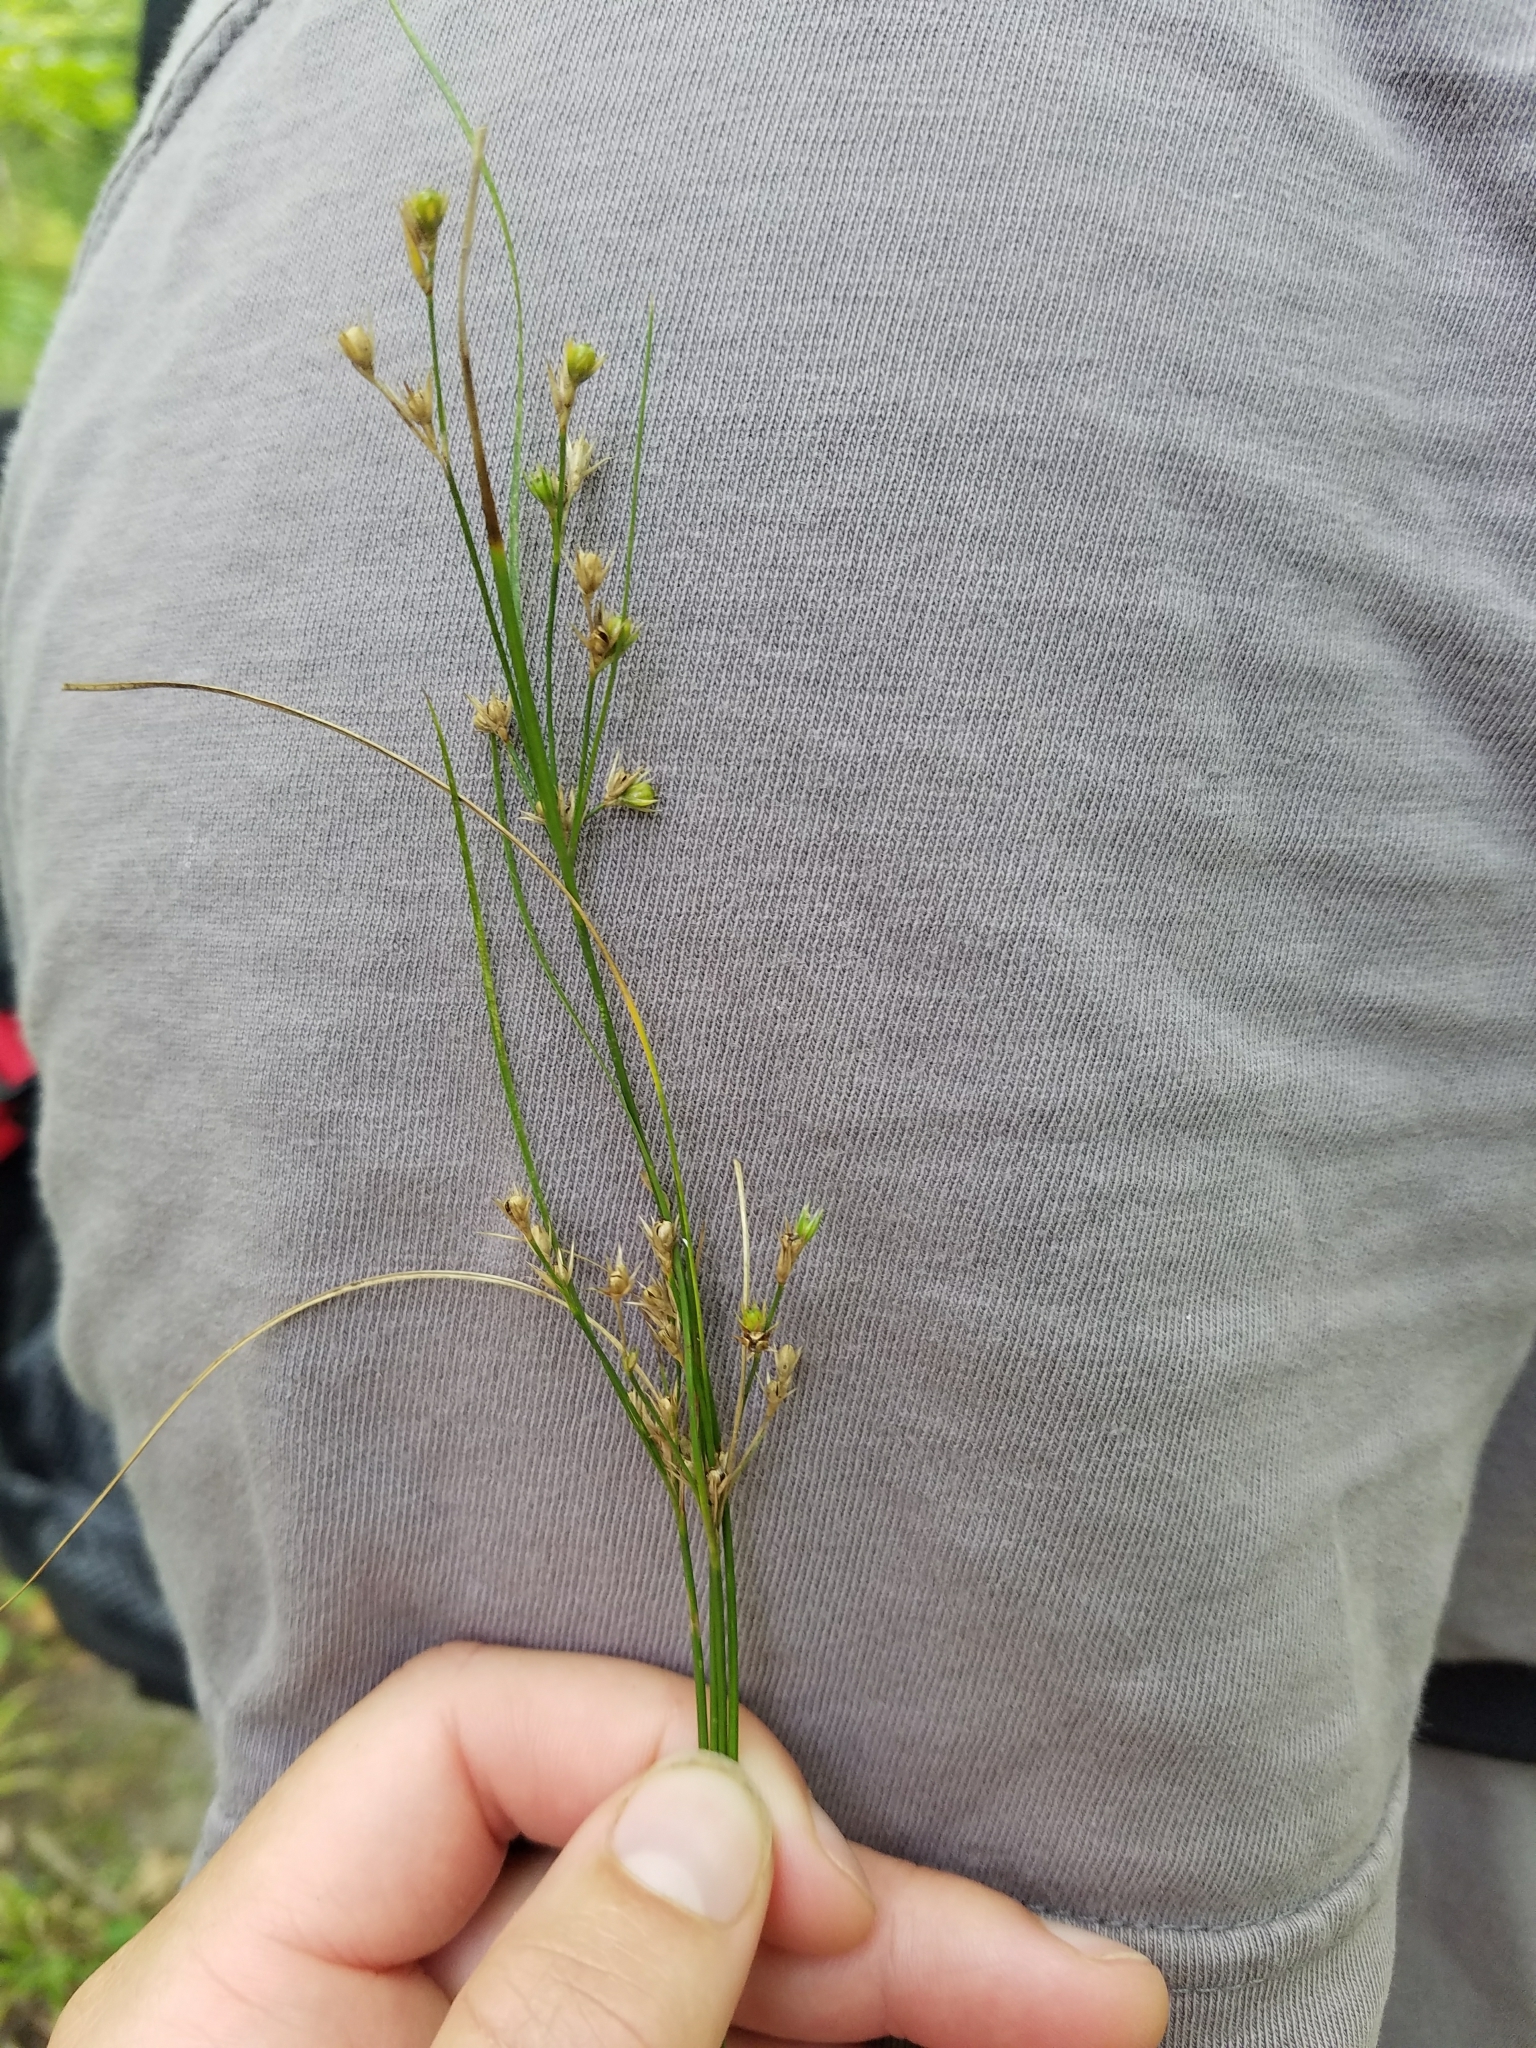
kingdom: Plantae
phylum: Tracheophyta
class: Liliopsida
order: Poales
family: Juncaceae
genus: Juncus
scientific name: Juncus tenuis
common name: Slender rush
